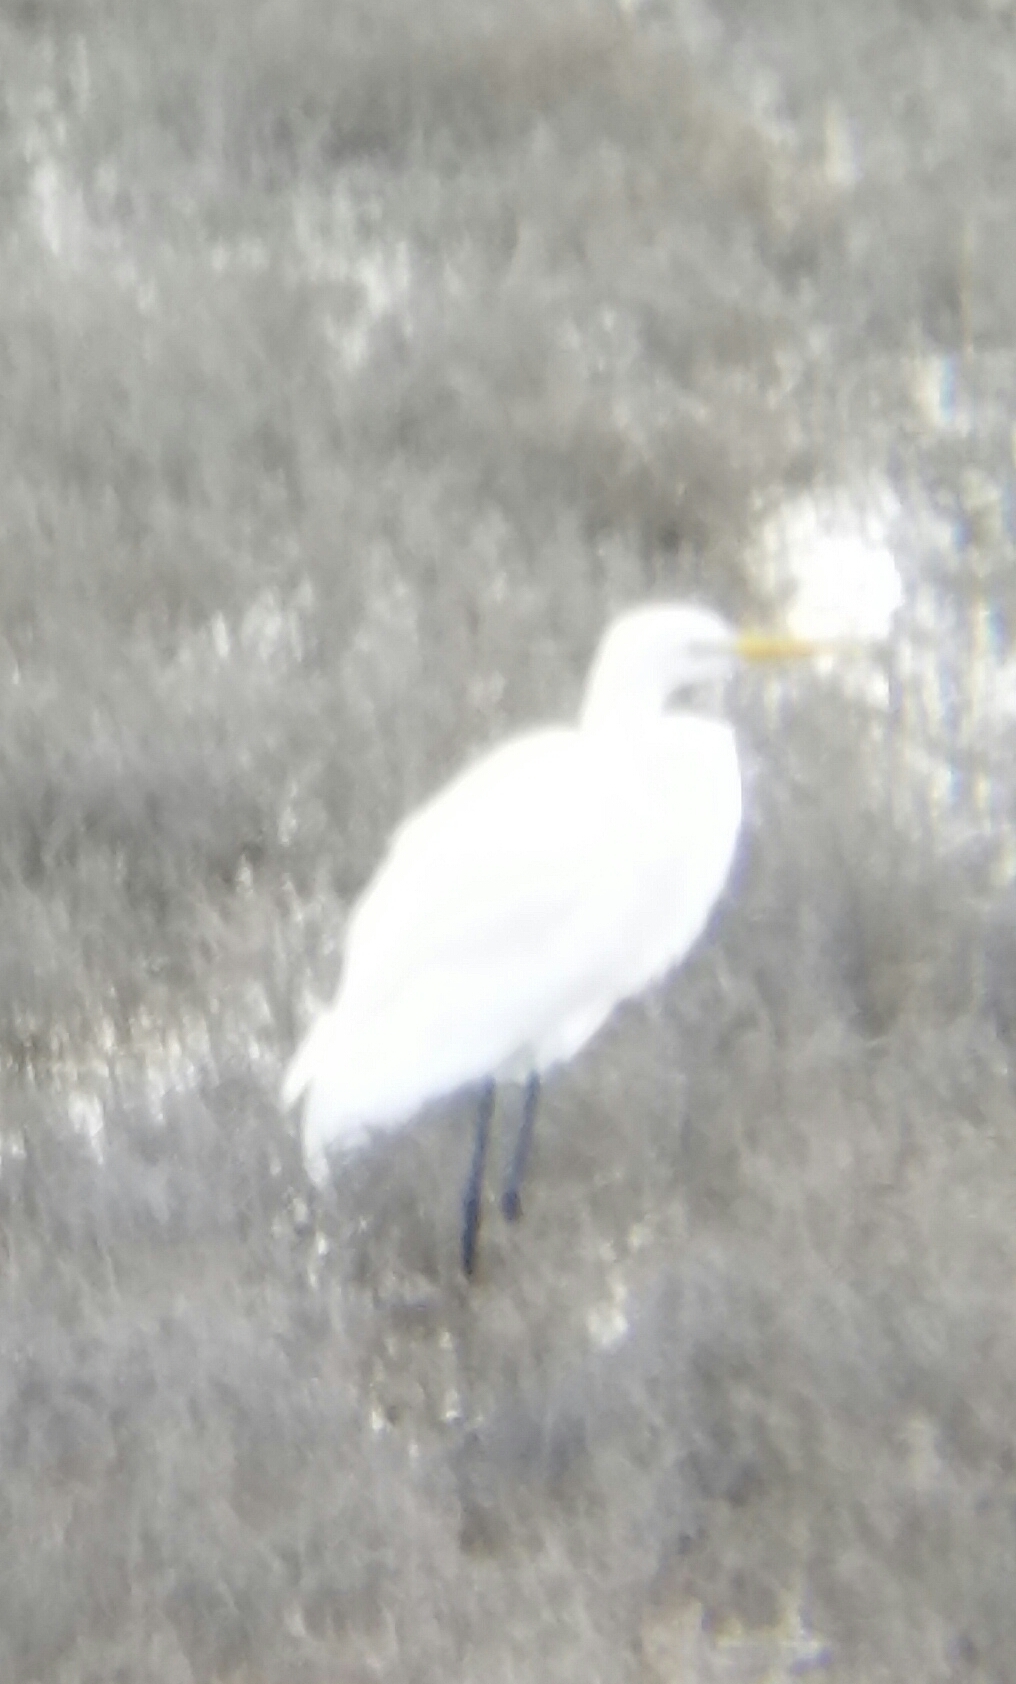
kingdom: Animalia
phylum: Chordata
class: Aves
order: Pelecaniformes
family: Ardeidae
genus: Ardea
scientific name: Ardea alba
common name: Great egret
